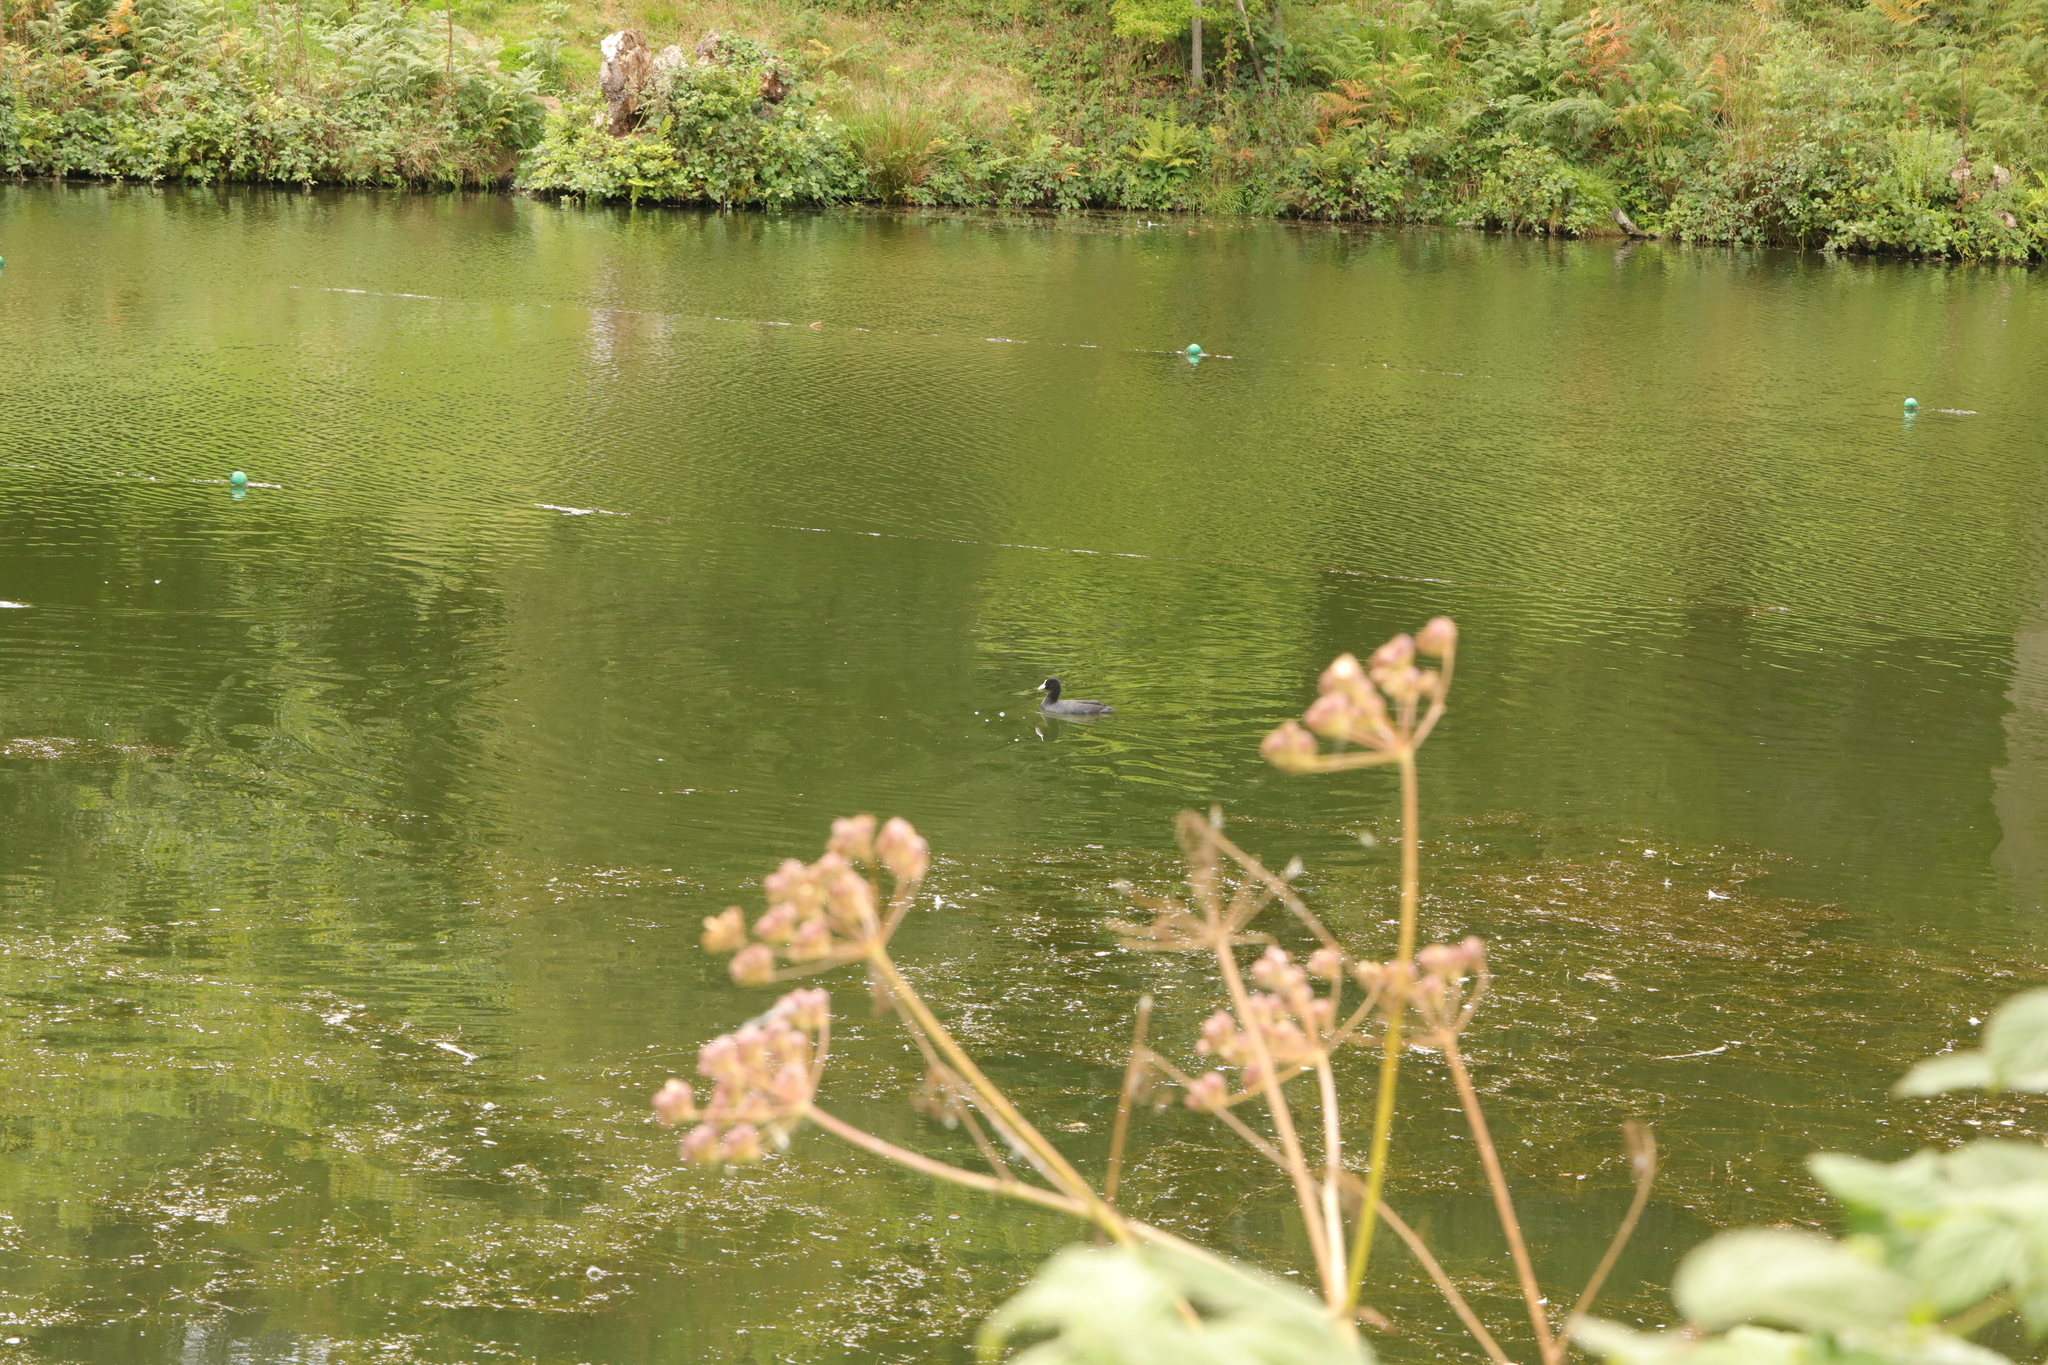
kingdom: Animalia
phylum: Chordata
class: Aves
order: Gruiformes
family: Rallidae
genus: Fulica
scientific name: Fulica atra
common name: Eurasian coot
